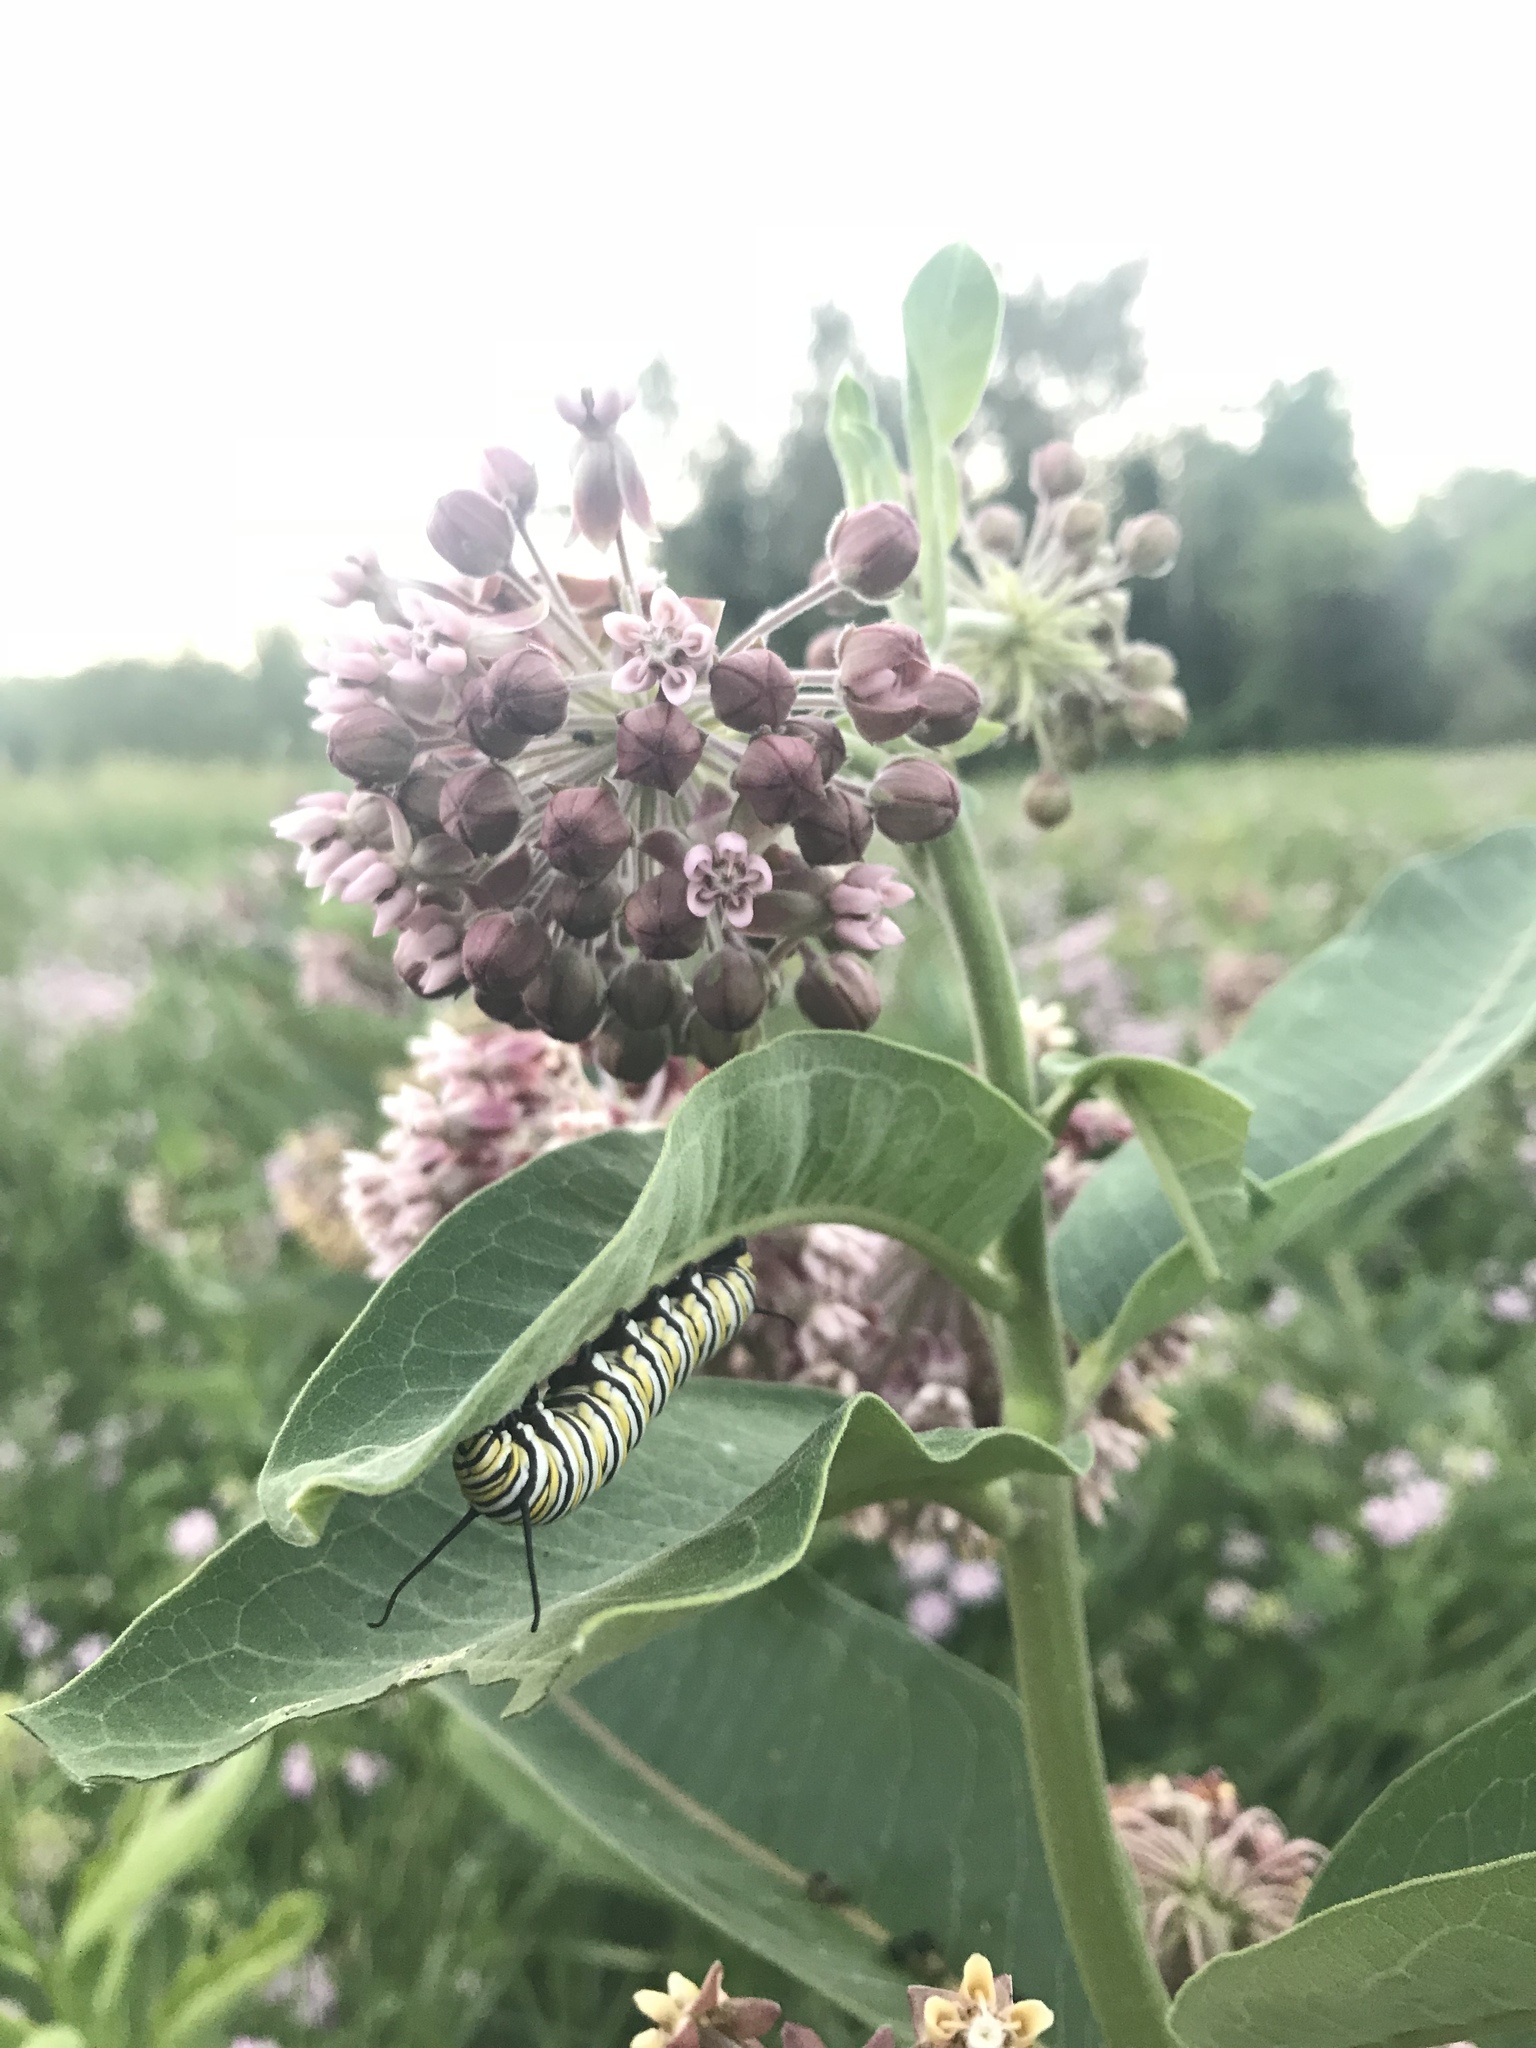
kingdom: Animalia
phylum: Arthropoda
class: Insecta
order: Lepidoptera
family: Nymphalidae
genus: Danaus
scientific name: Danaus plexippus
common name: Monarch
